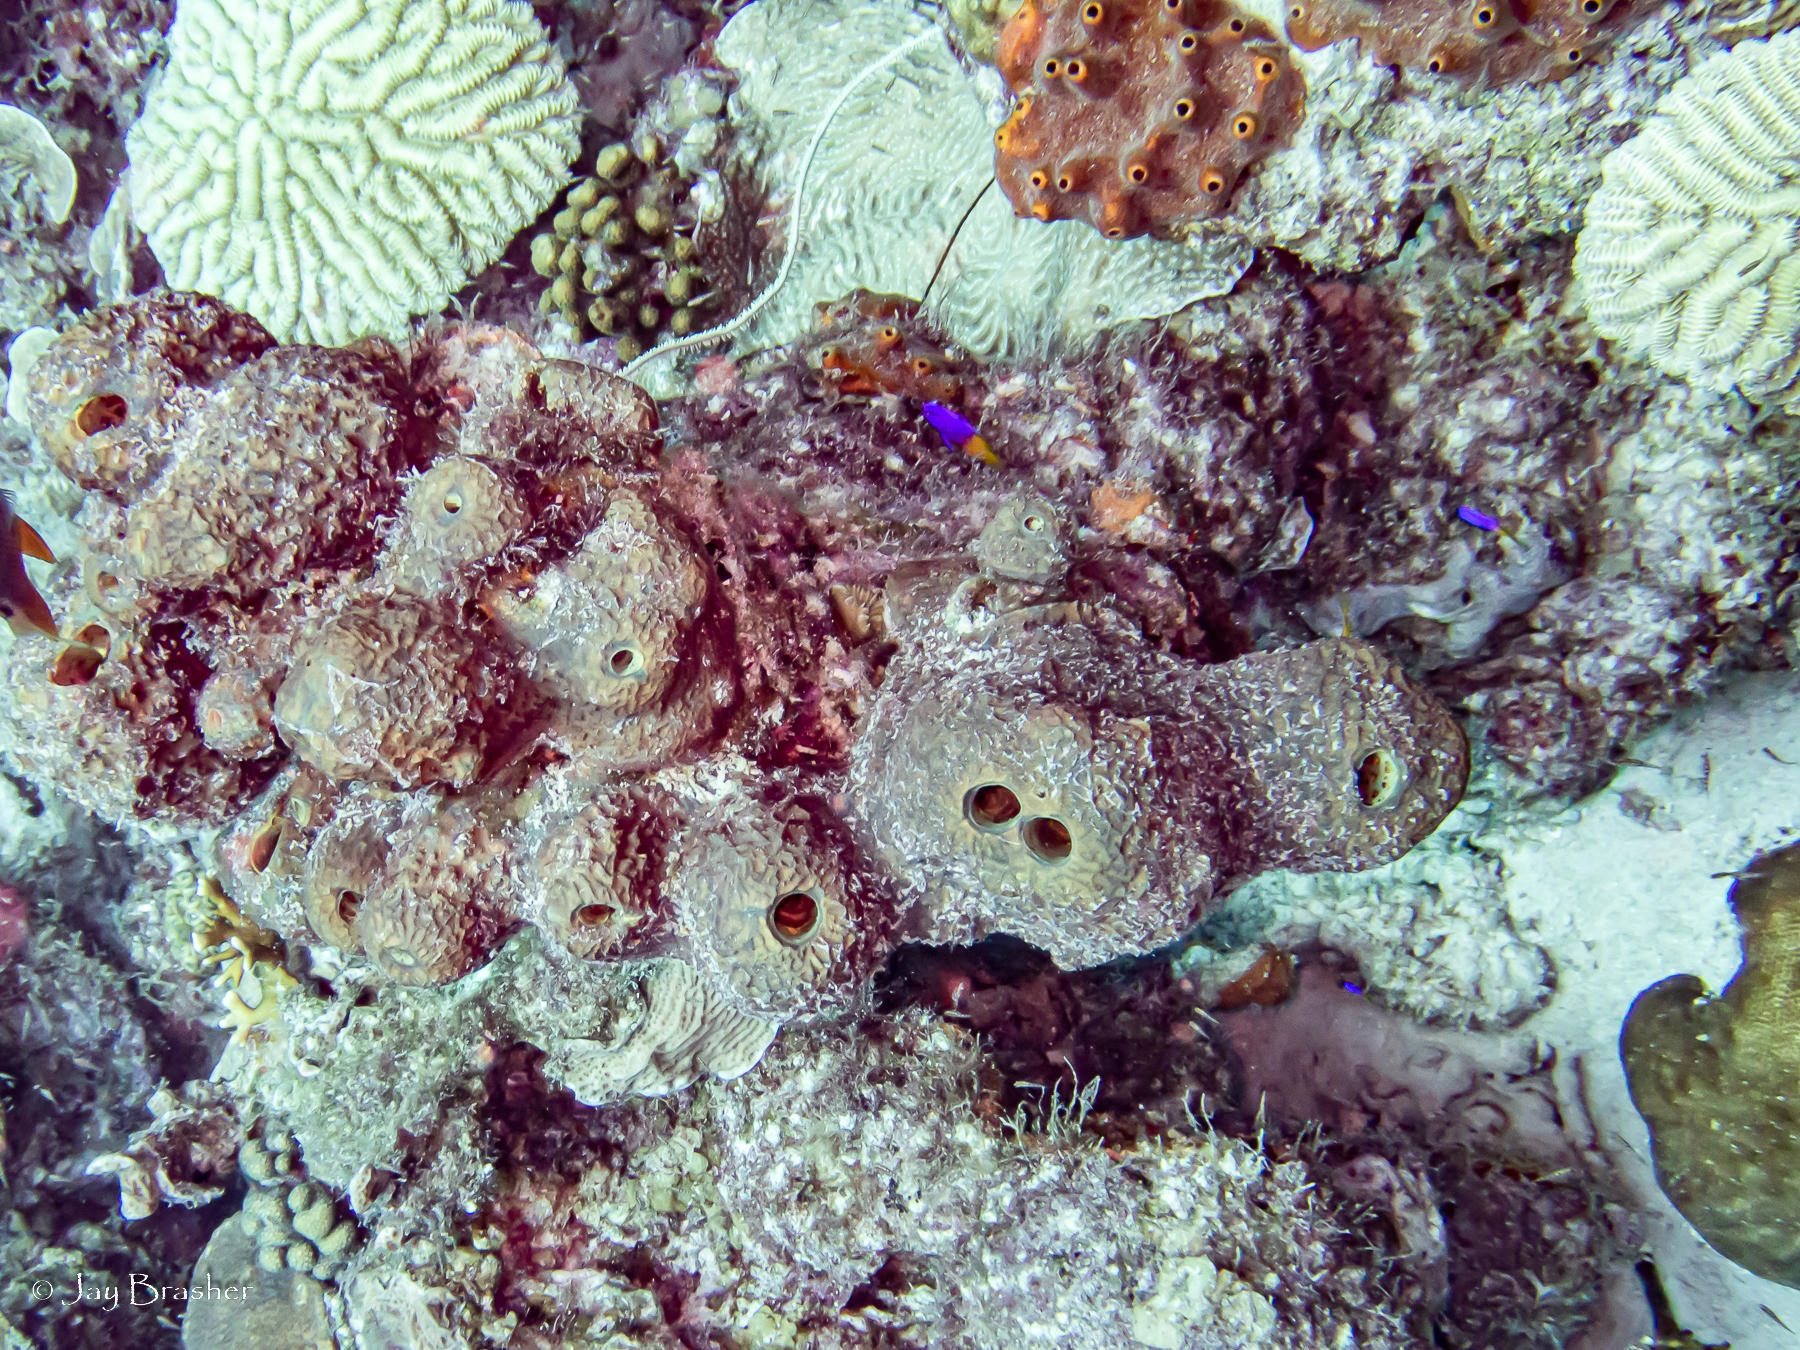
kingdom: Animalia
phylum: Cnidaria
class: Anthozoa
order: Scleractinia
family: Pocilloporidae
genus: Madracis
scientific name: Madracis decactis
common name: Ten-ray star coral
